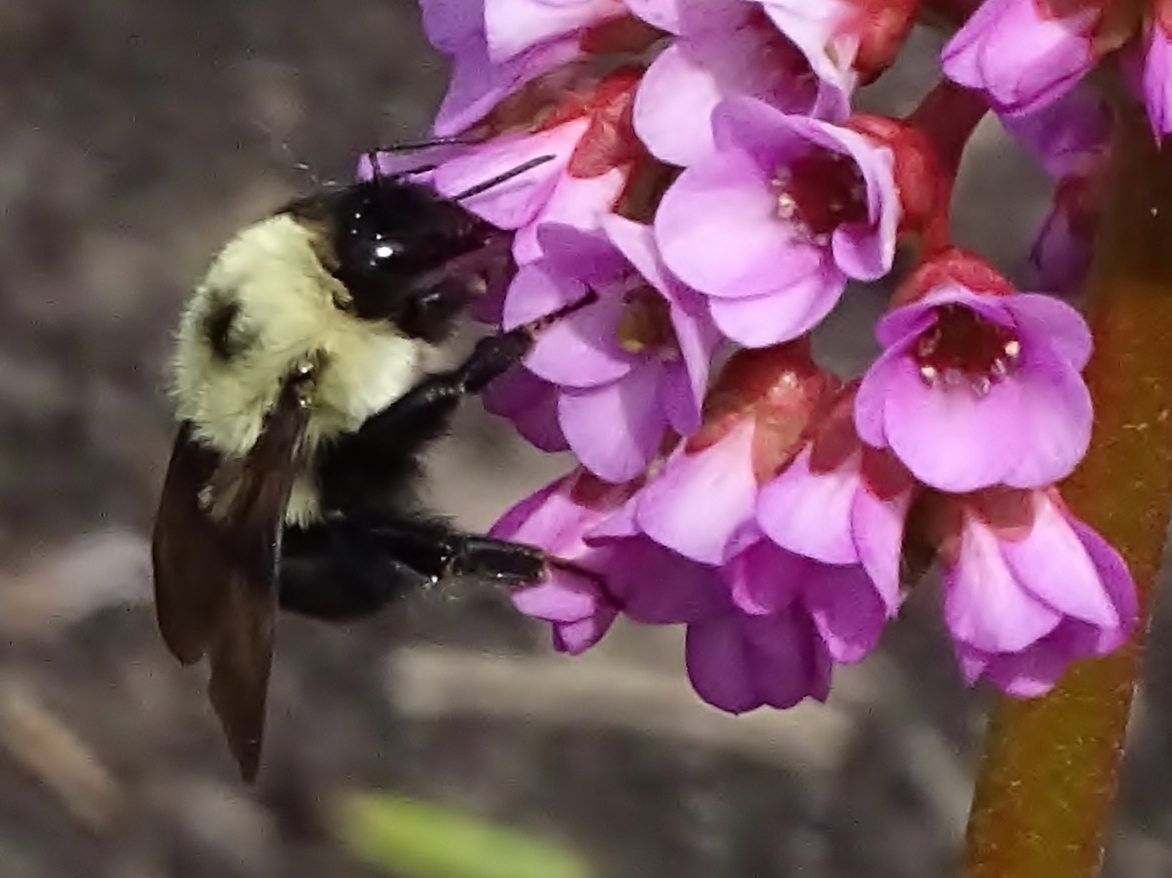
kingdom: Animalia
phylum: Arthropoda
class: Insecta
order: Hymenoptera
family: Apidae
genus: Bombus
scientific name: Bombus bimaculatus
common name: Two-spotted bumble bee
